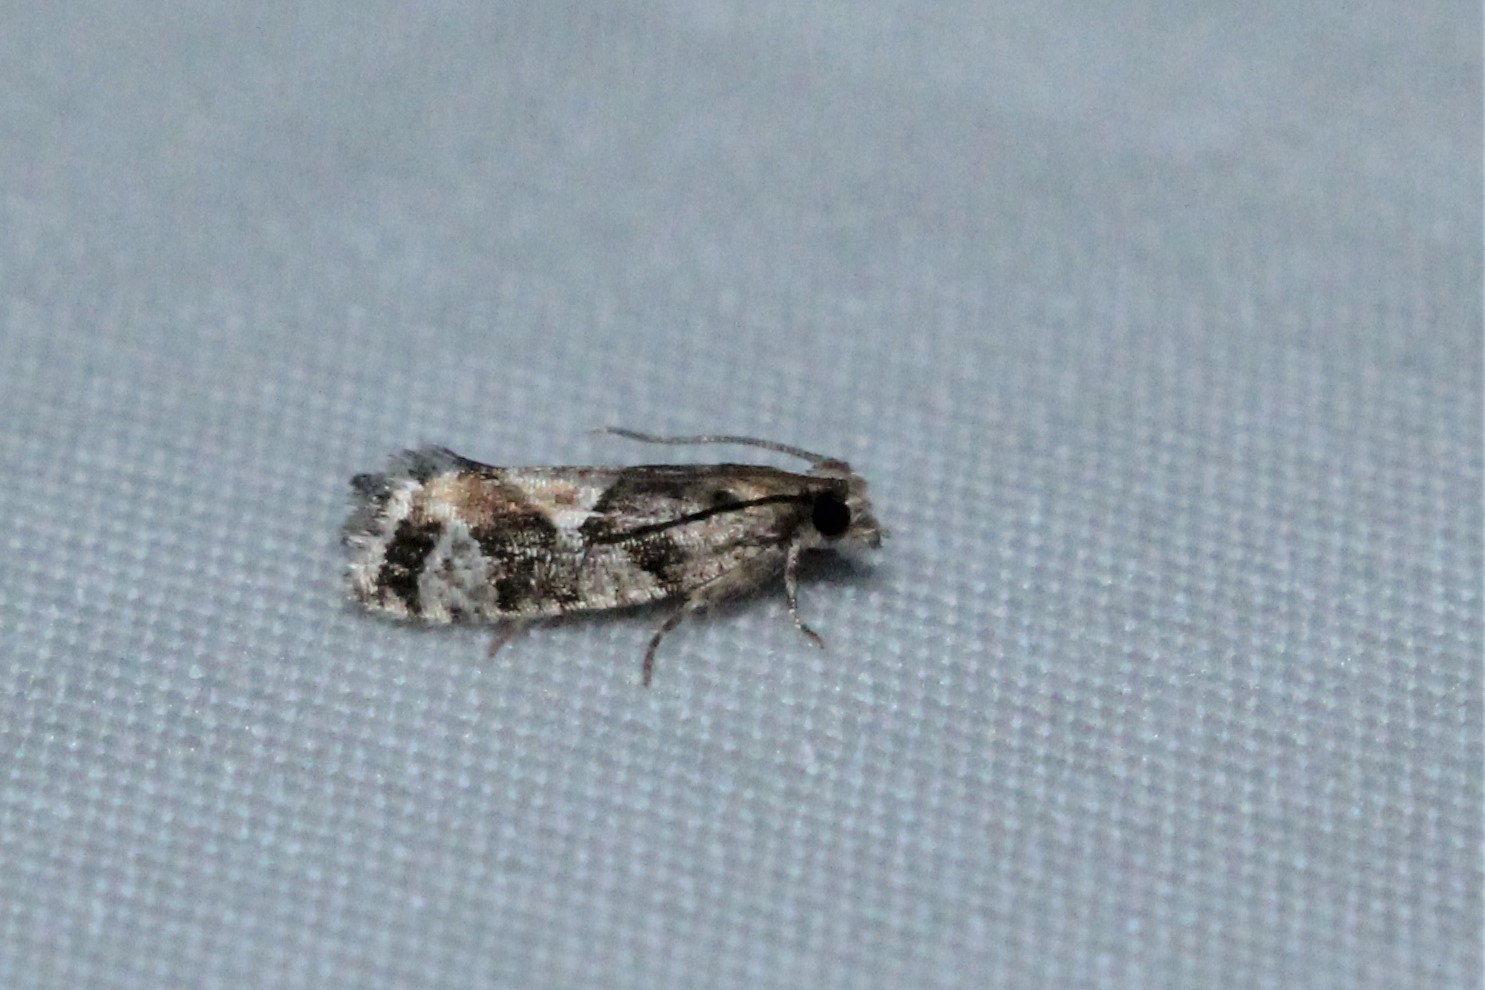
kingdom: Animalia
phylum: Arthropoda
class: Insecta
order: Lepidoptera
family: Tortricidae
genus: Zeiraphera
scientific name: Zeiraphera canadensis
